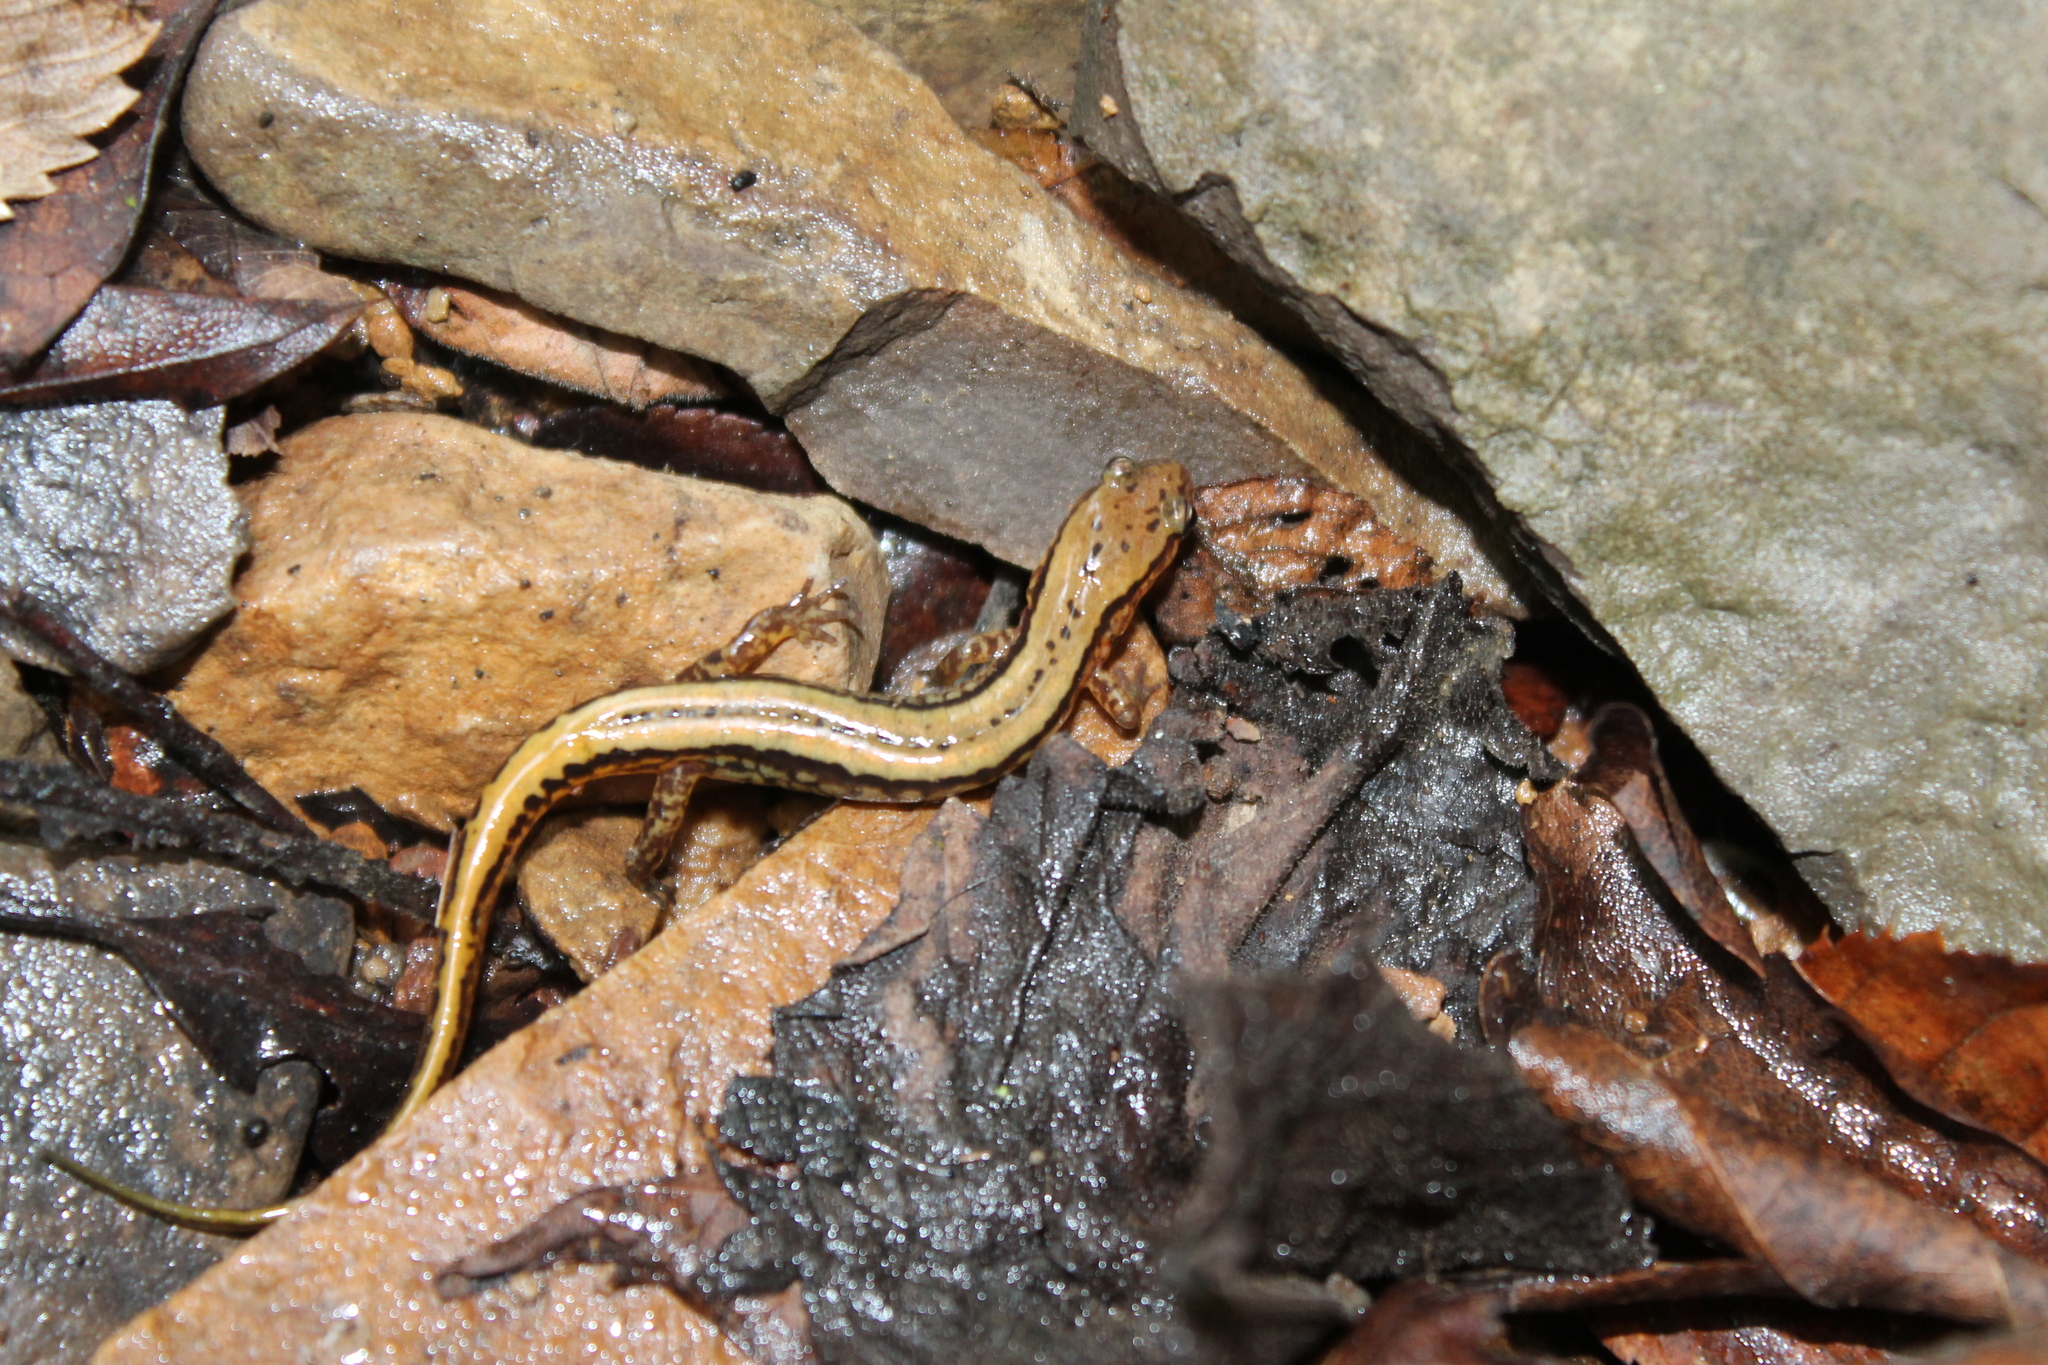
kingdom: Animalia
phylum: Chordata
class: Amphibia
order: Caudata
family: Plethodontidae
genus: Eurycea
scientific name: Eurycea cirrigera
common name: Southern two-lined salamander
